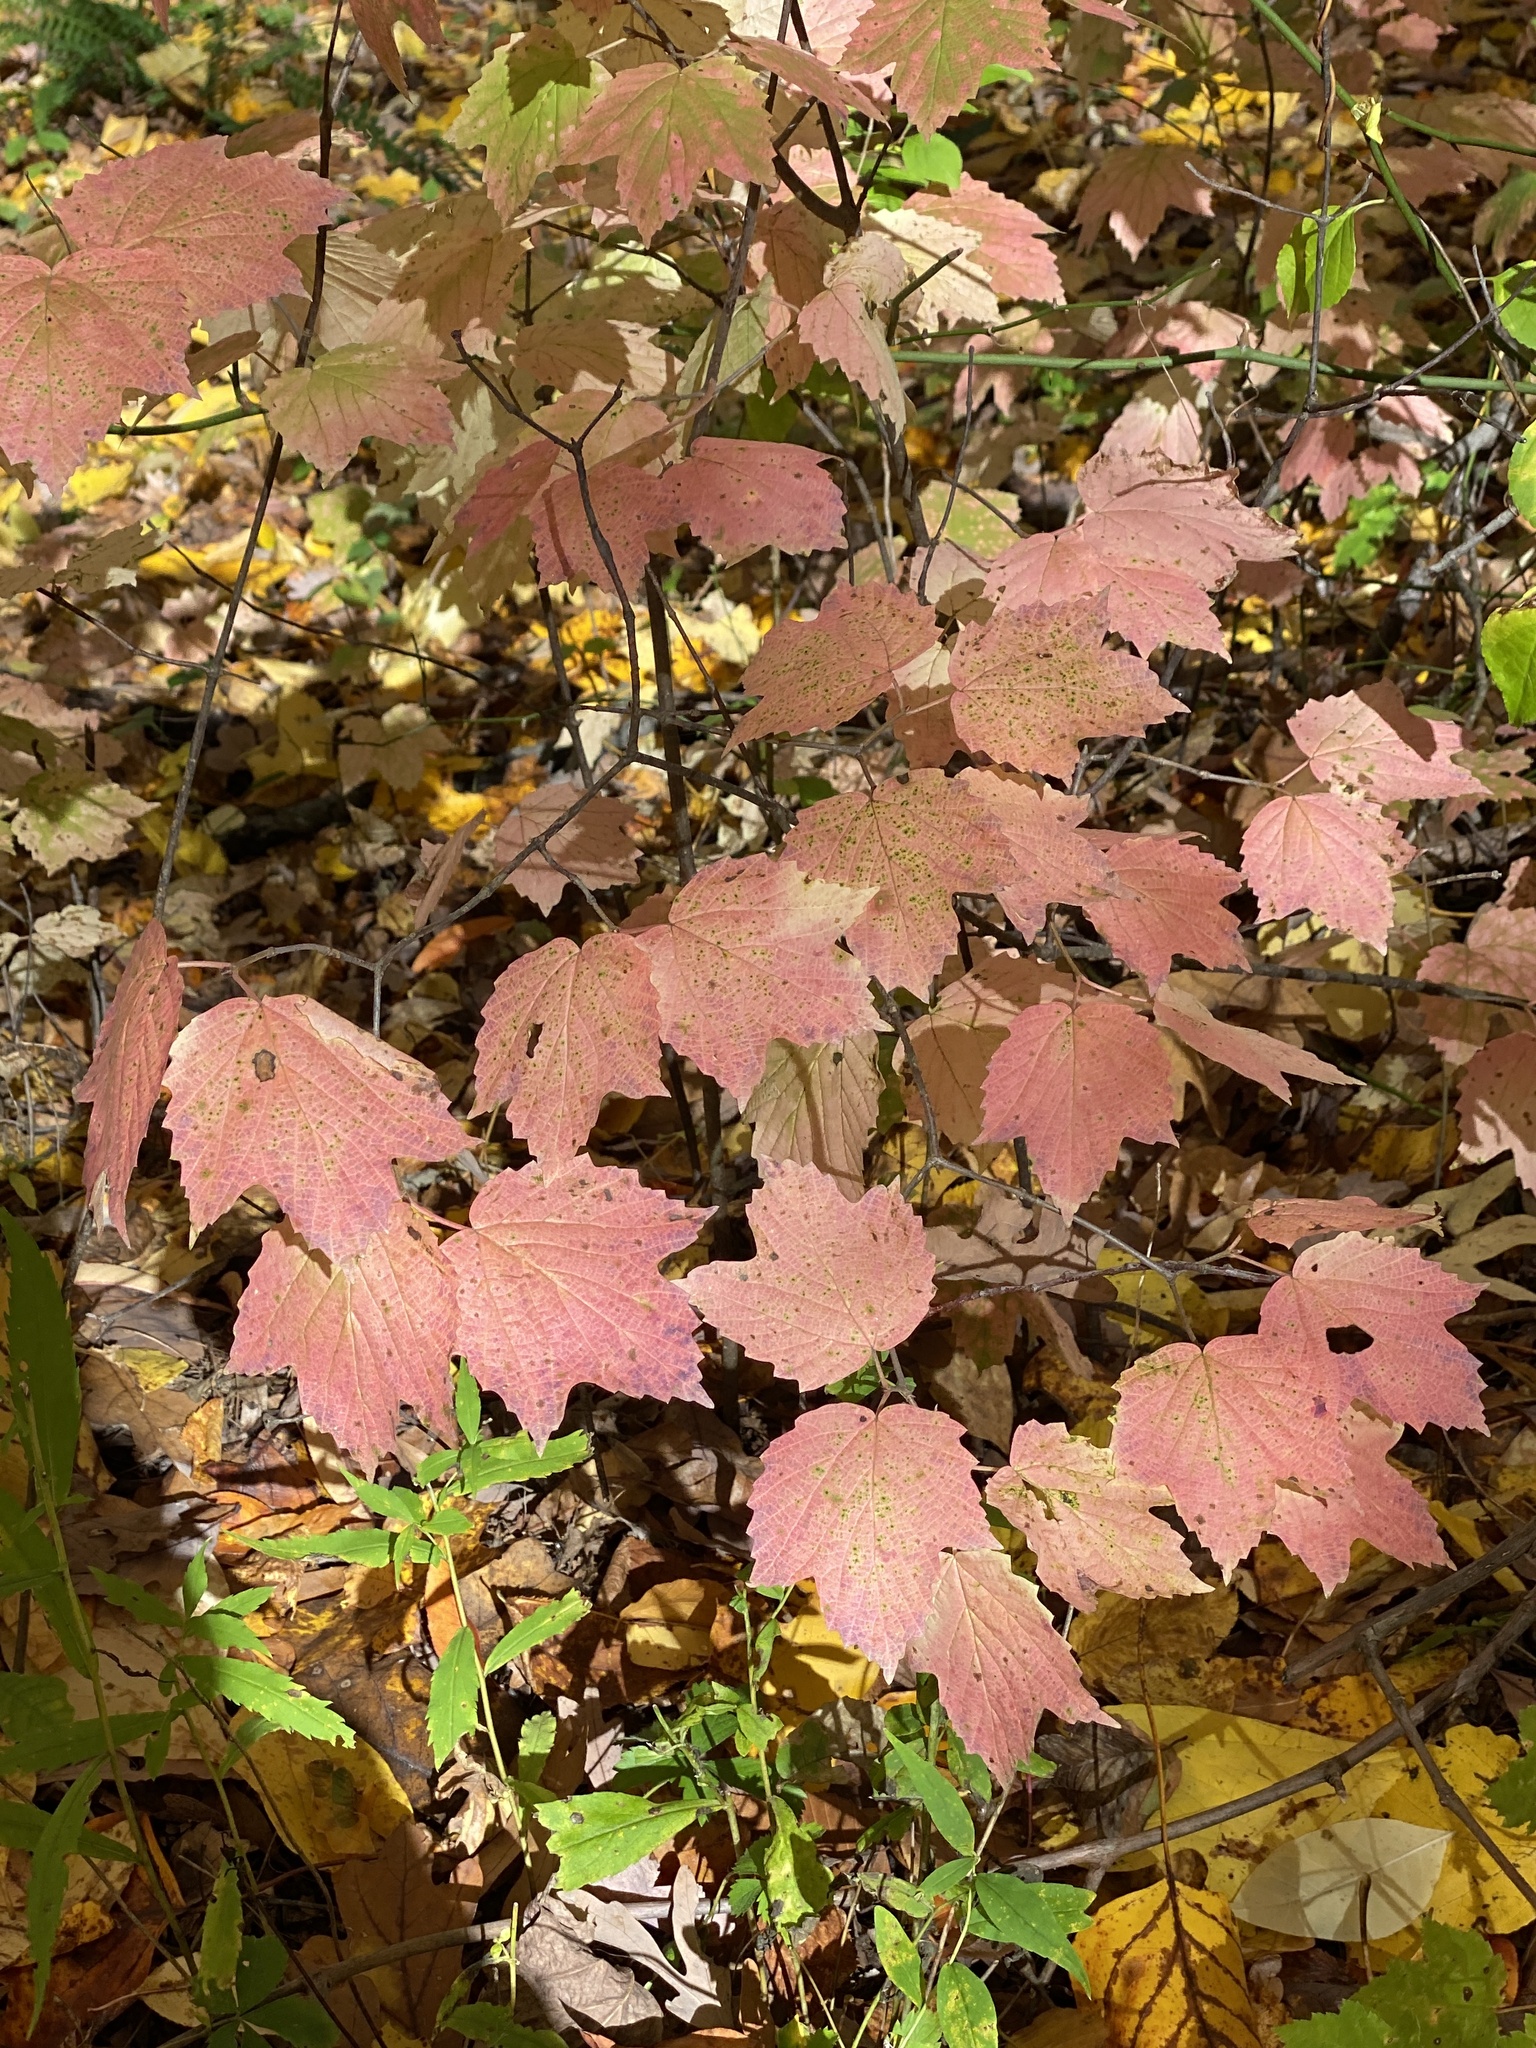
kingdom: Plantae
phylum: Tracheophyta
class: Magnoliopsida
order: Dipsacales
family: Viburnaceae
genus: Viburnum
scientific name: Viburnum acerifolium
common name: Dockmackie
